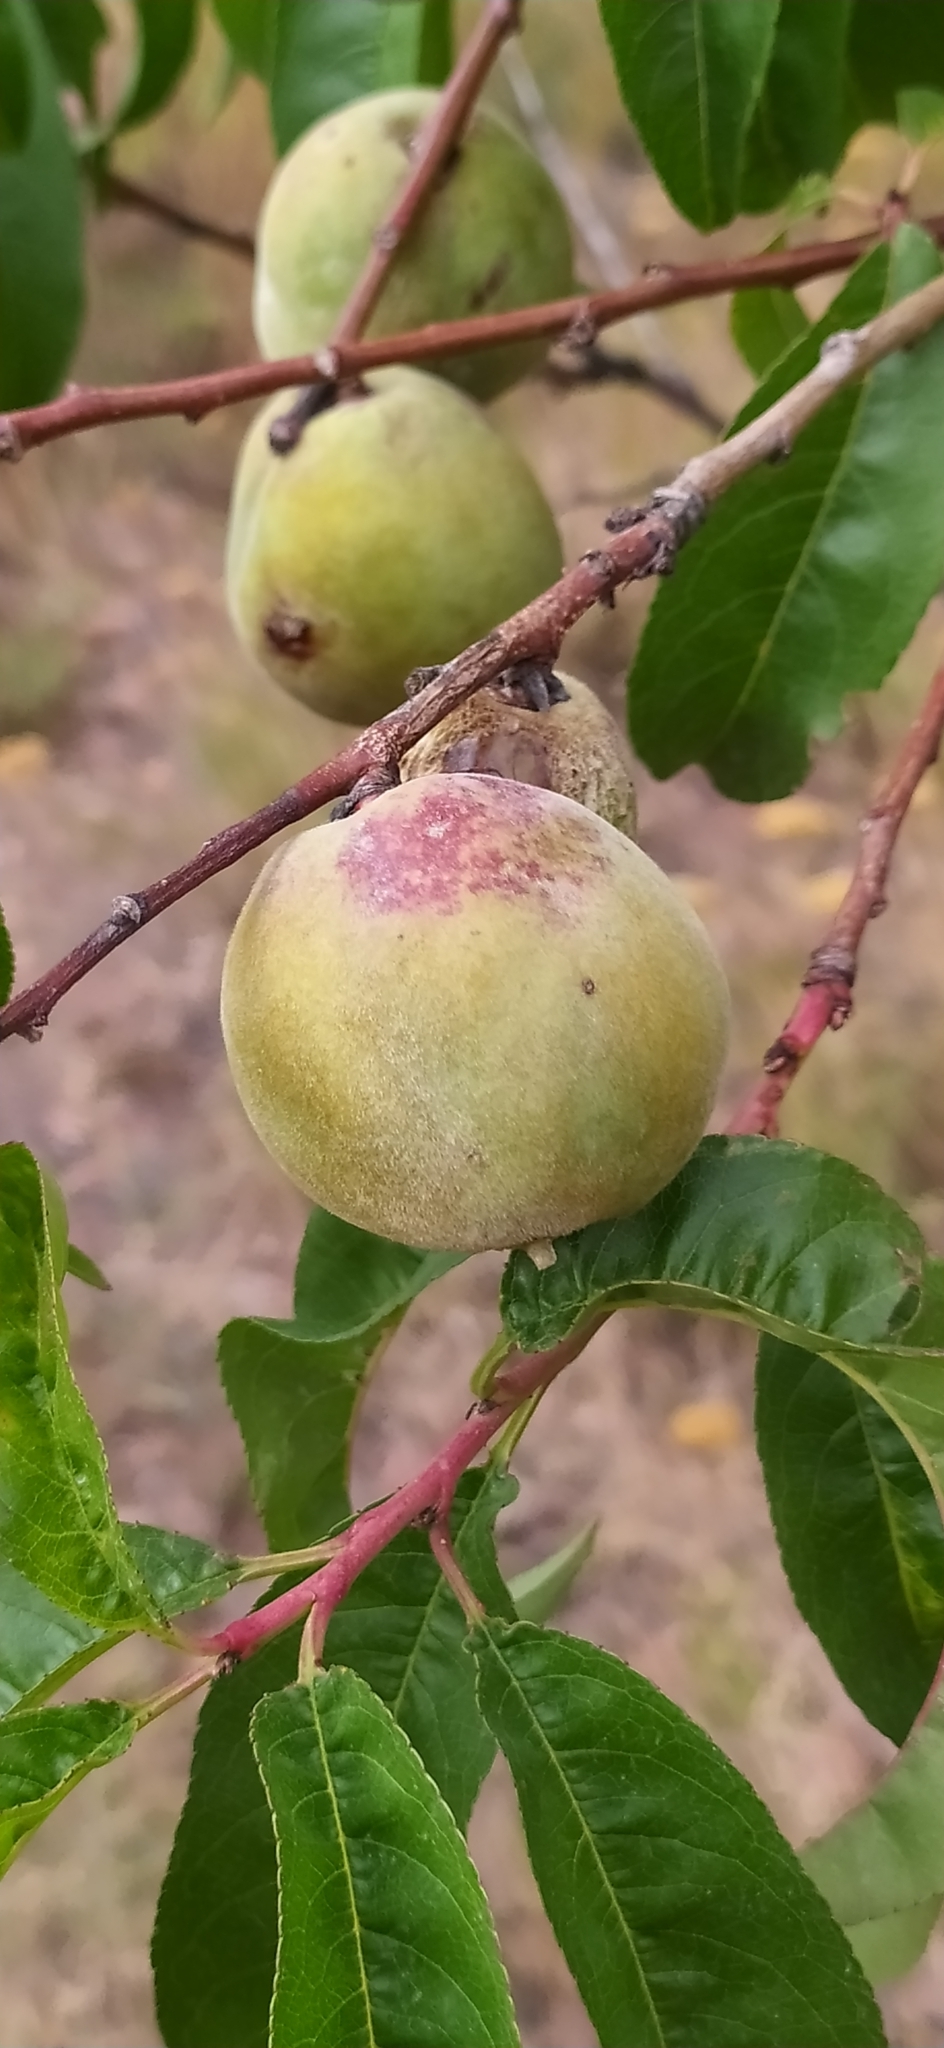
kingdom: Plantae
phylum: Tracheophyta
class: Magnoliopsida
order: Rosales
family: Rosaceae
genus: Prunus
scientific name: Prunus persica
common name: Peach
